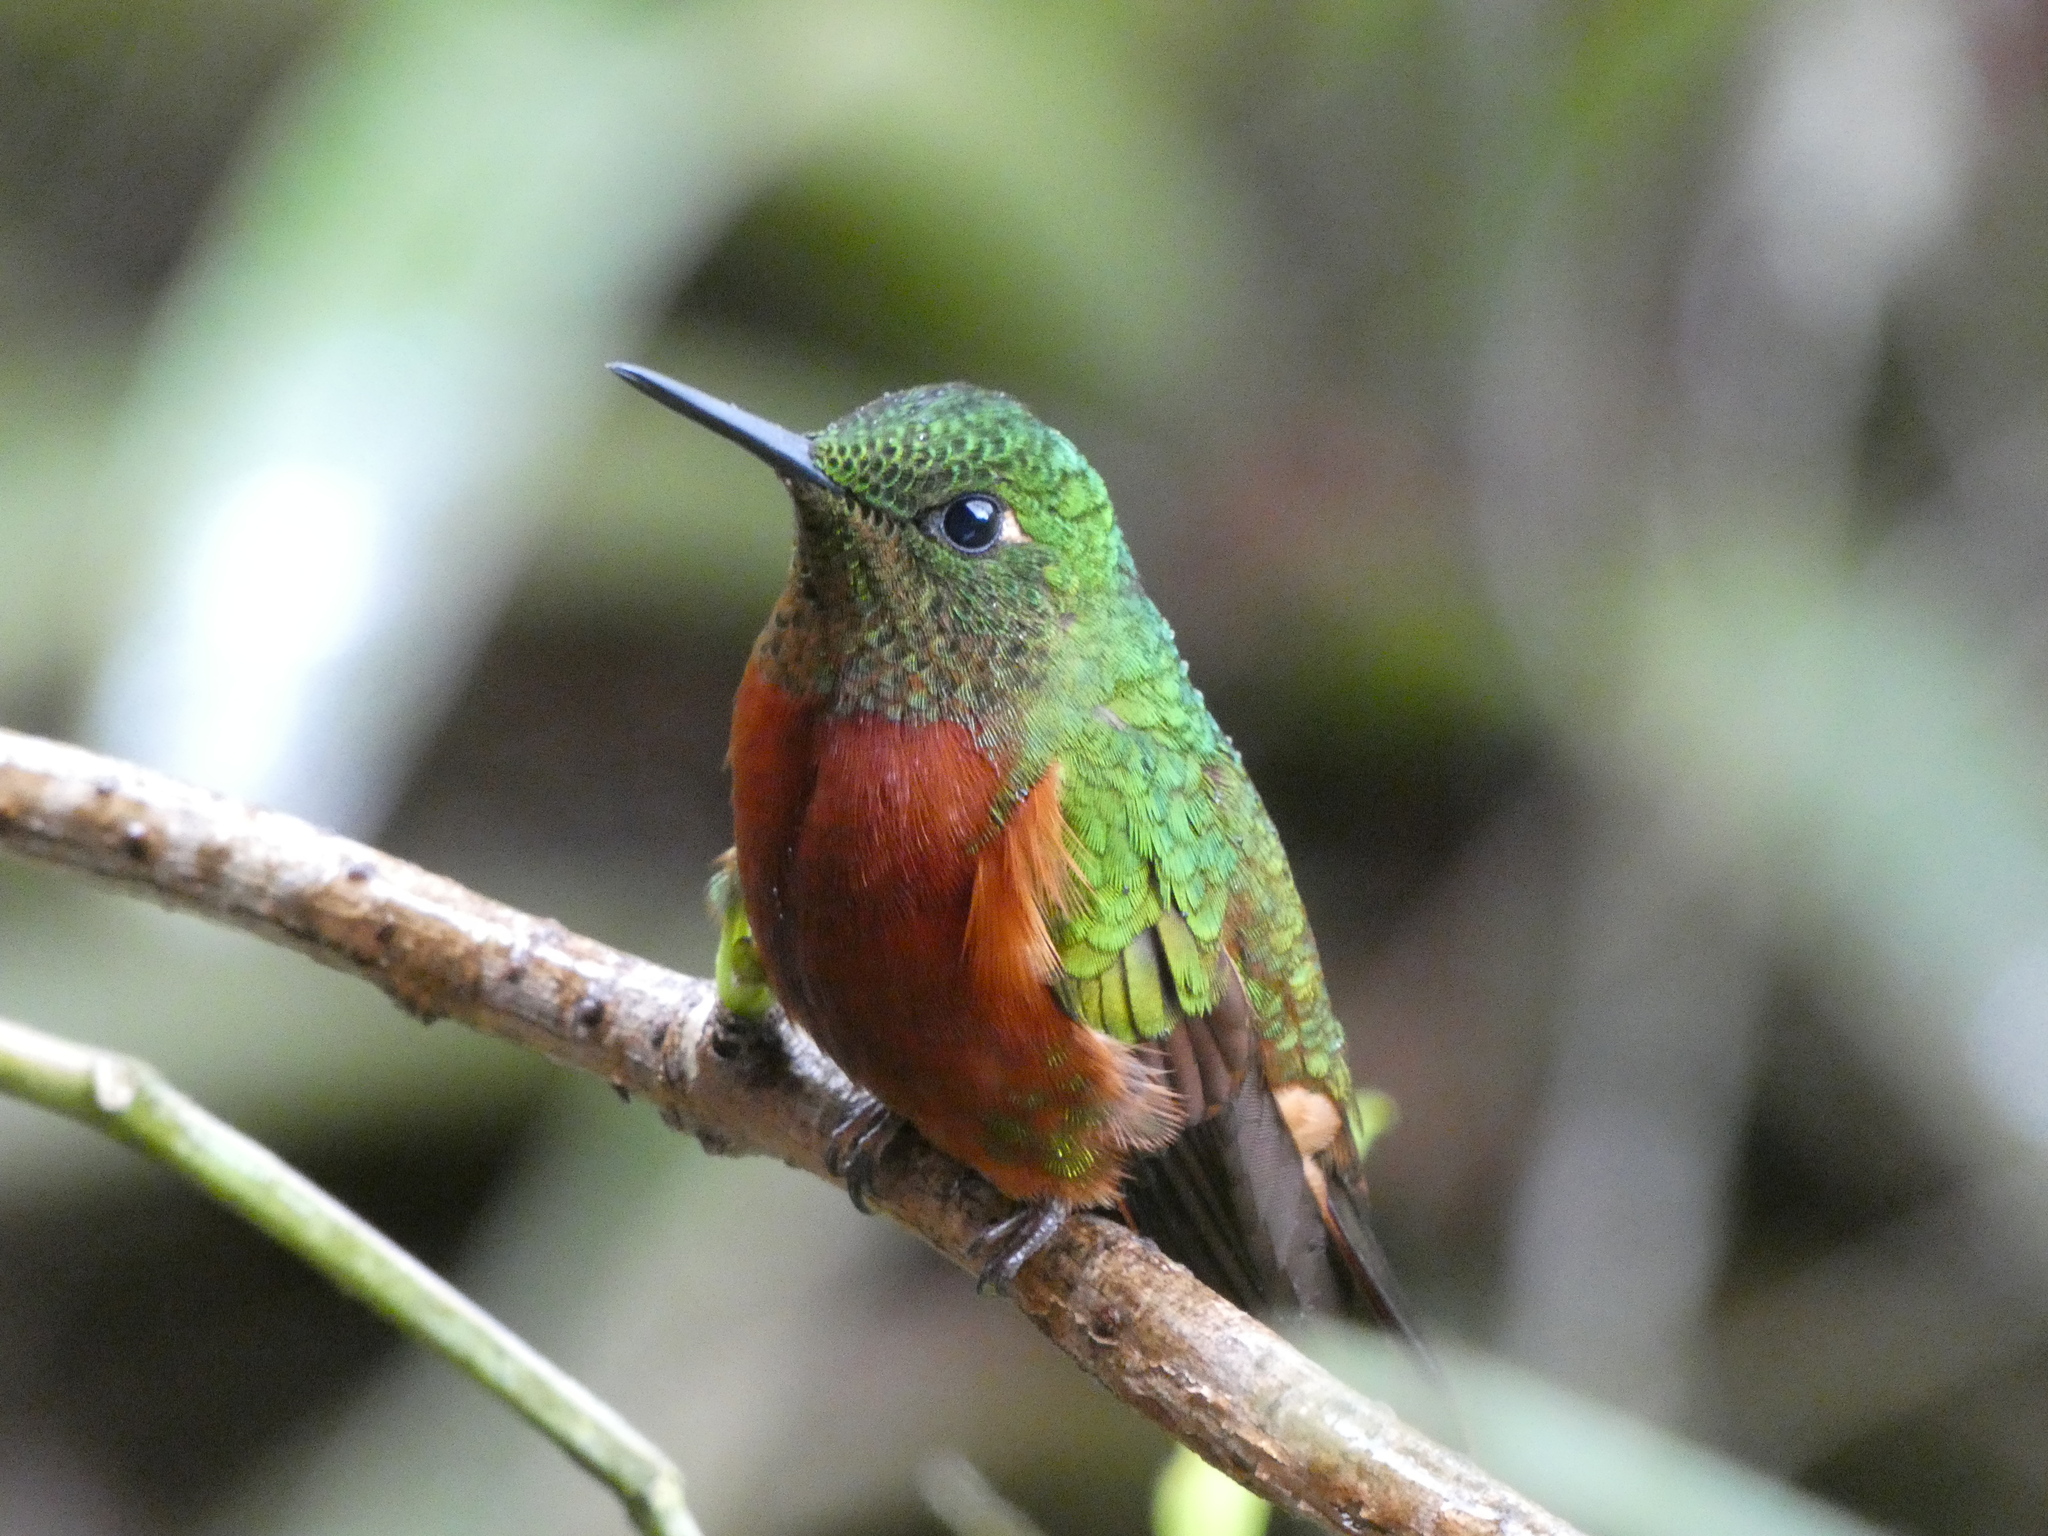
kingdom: Animalia
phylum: Chordata
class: Aves
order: Apodiformes
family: Trochilidae
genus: Boissonneaua
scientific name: Boissonneaua matthewsii
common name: Chestnut-breasted coronet
